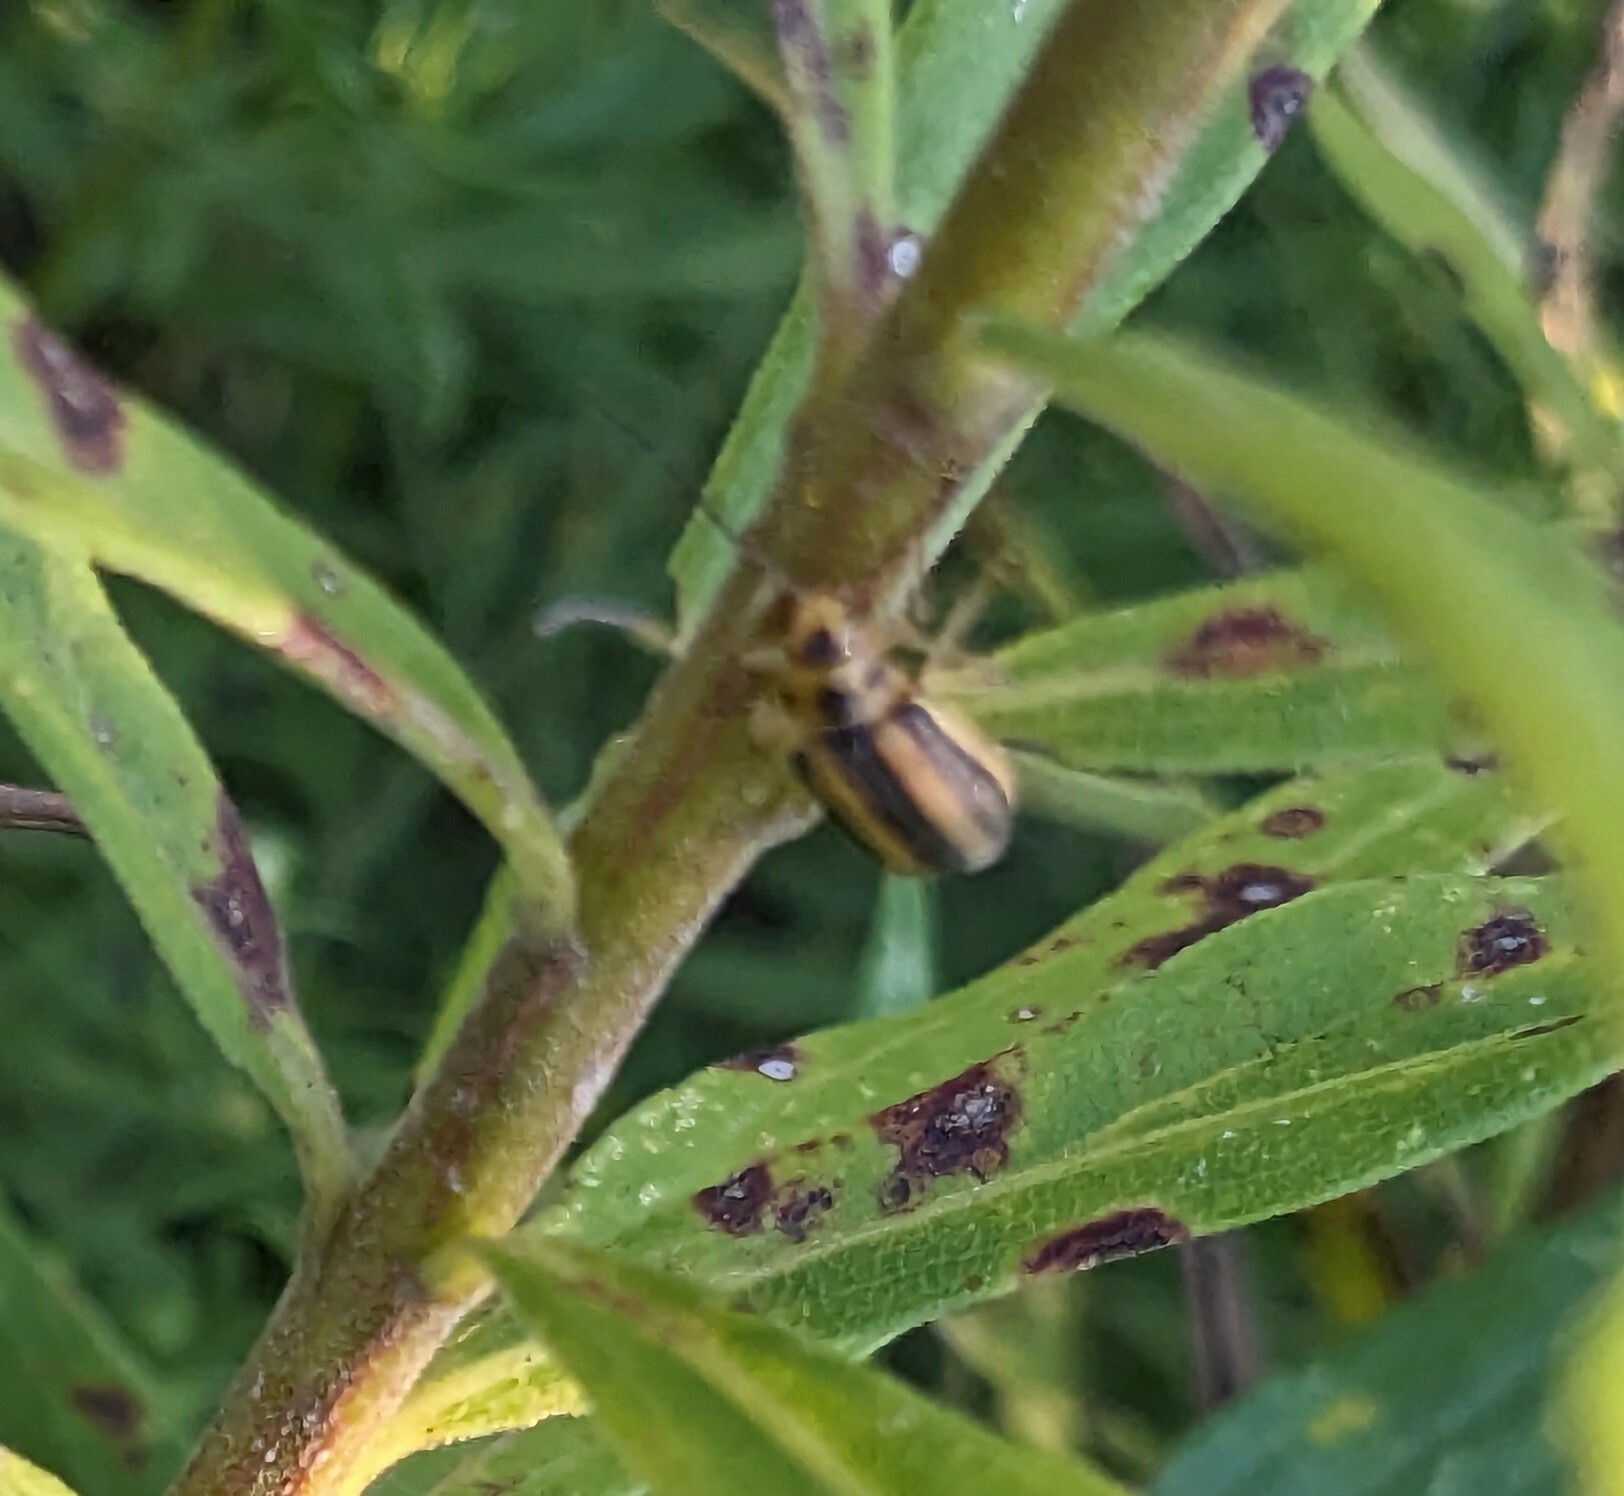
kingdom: Animalia
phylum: Arthropoda
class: Insecta
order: Coleoptera
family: Chrysomelidae
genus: Trirhabda
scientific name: Trirhabda canadensis
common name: Goldenrod leaf beetle
